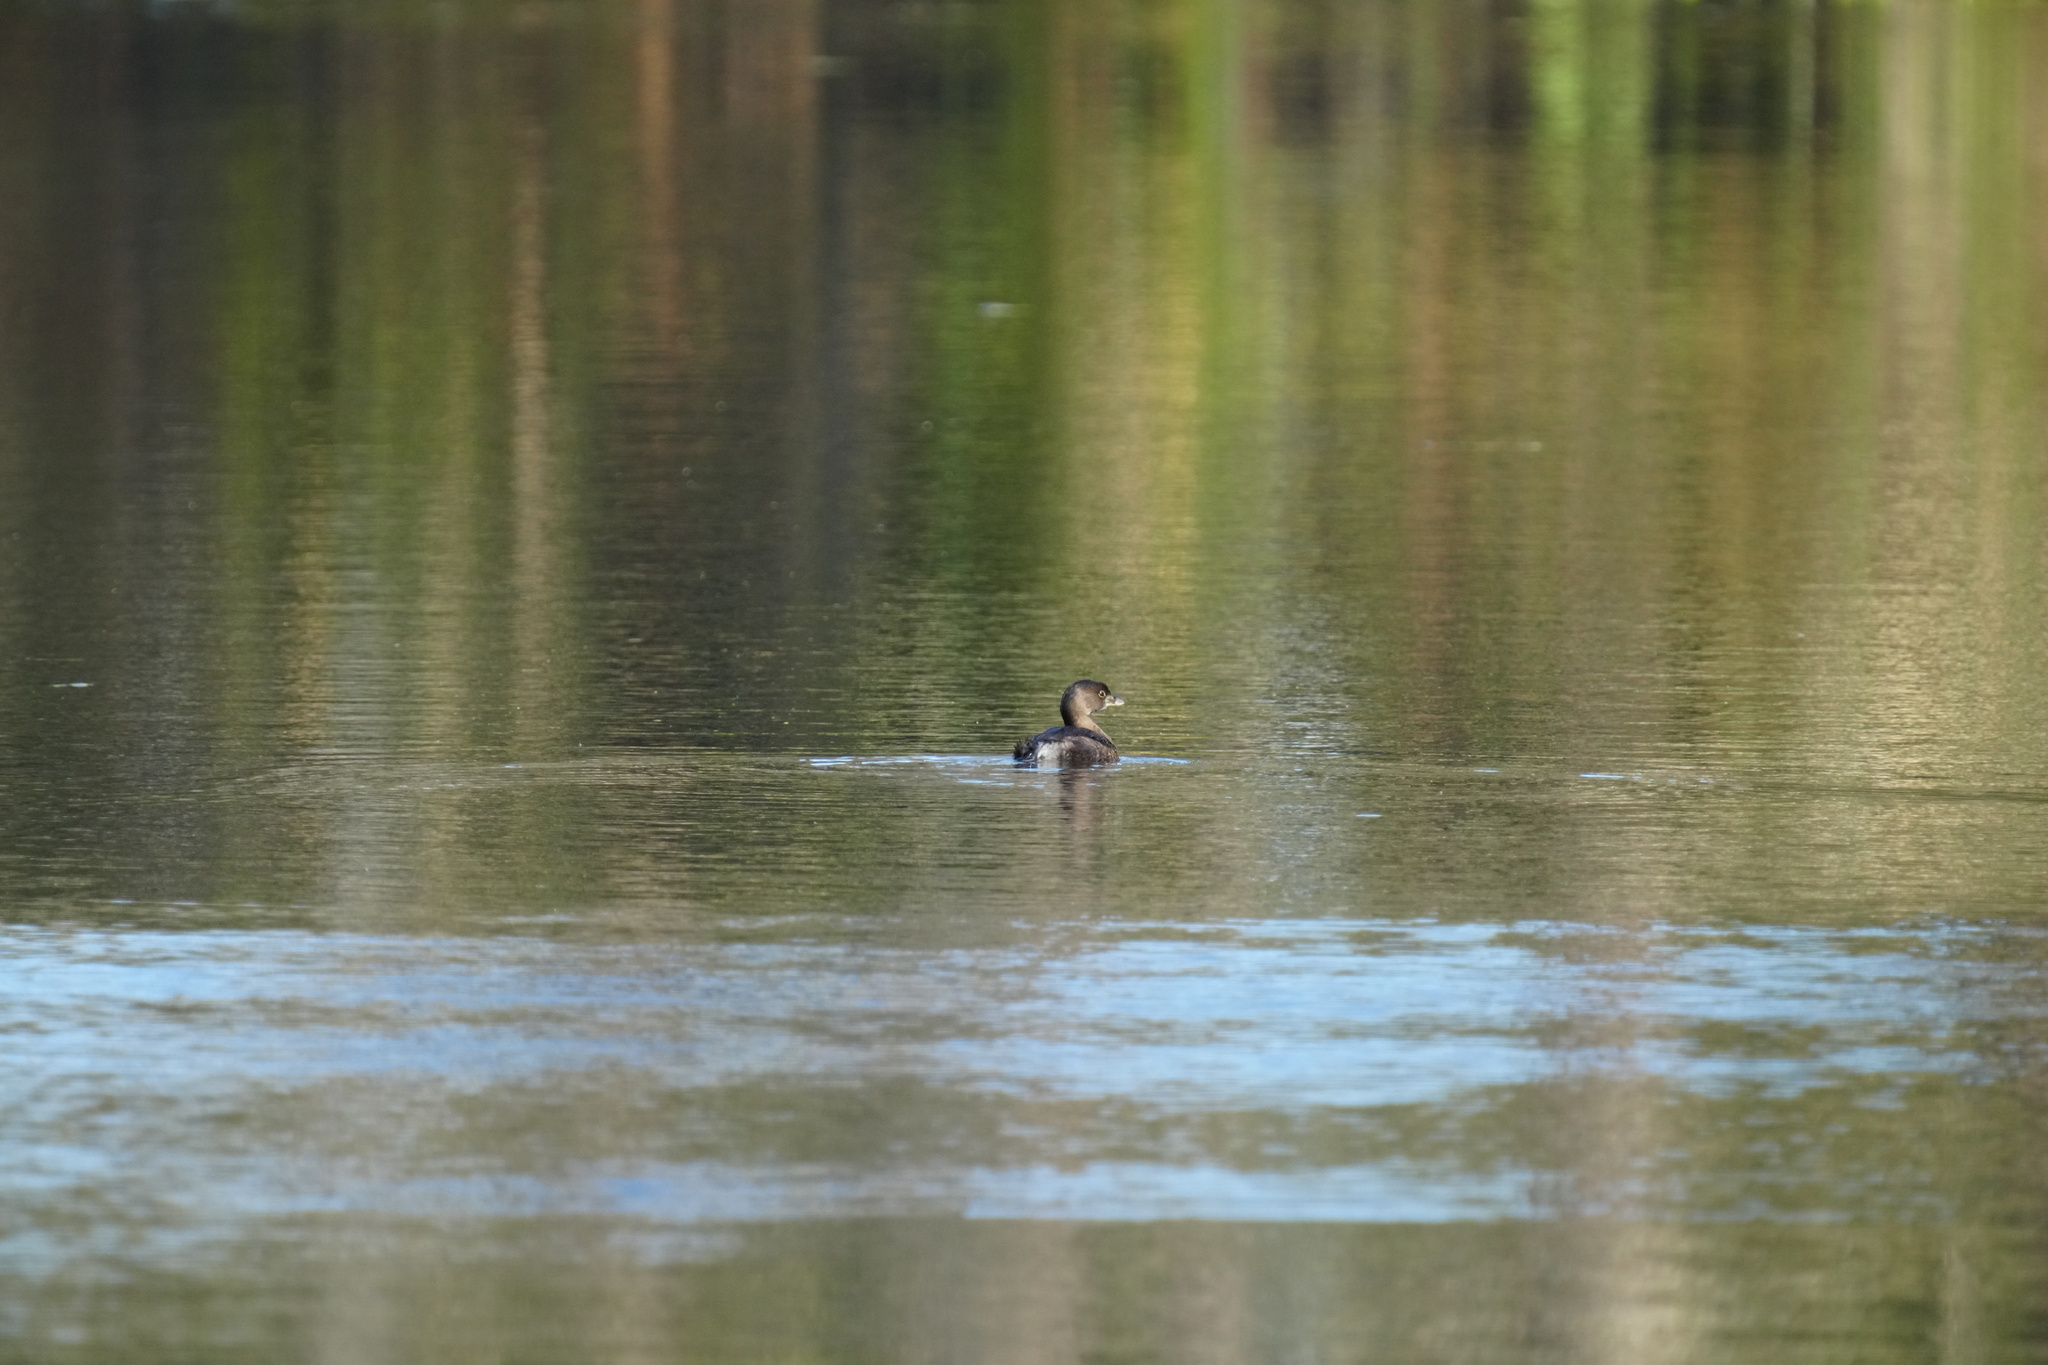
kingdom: Animalia
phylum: Chordata
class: Aves
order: Podicipediformes
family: Podicipedidae
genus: Podilymbus
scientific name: Podilymbus podiceps
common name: Pied-billed grebe
